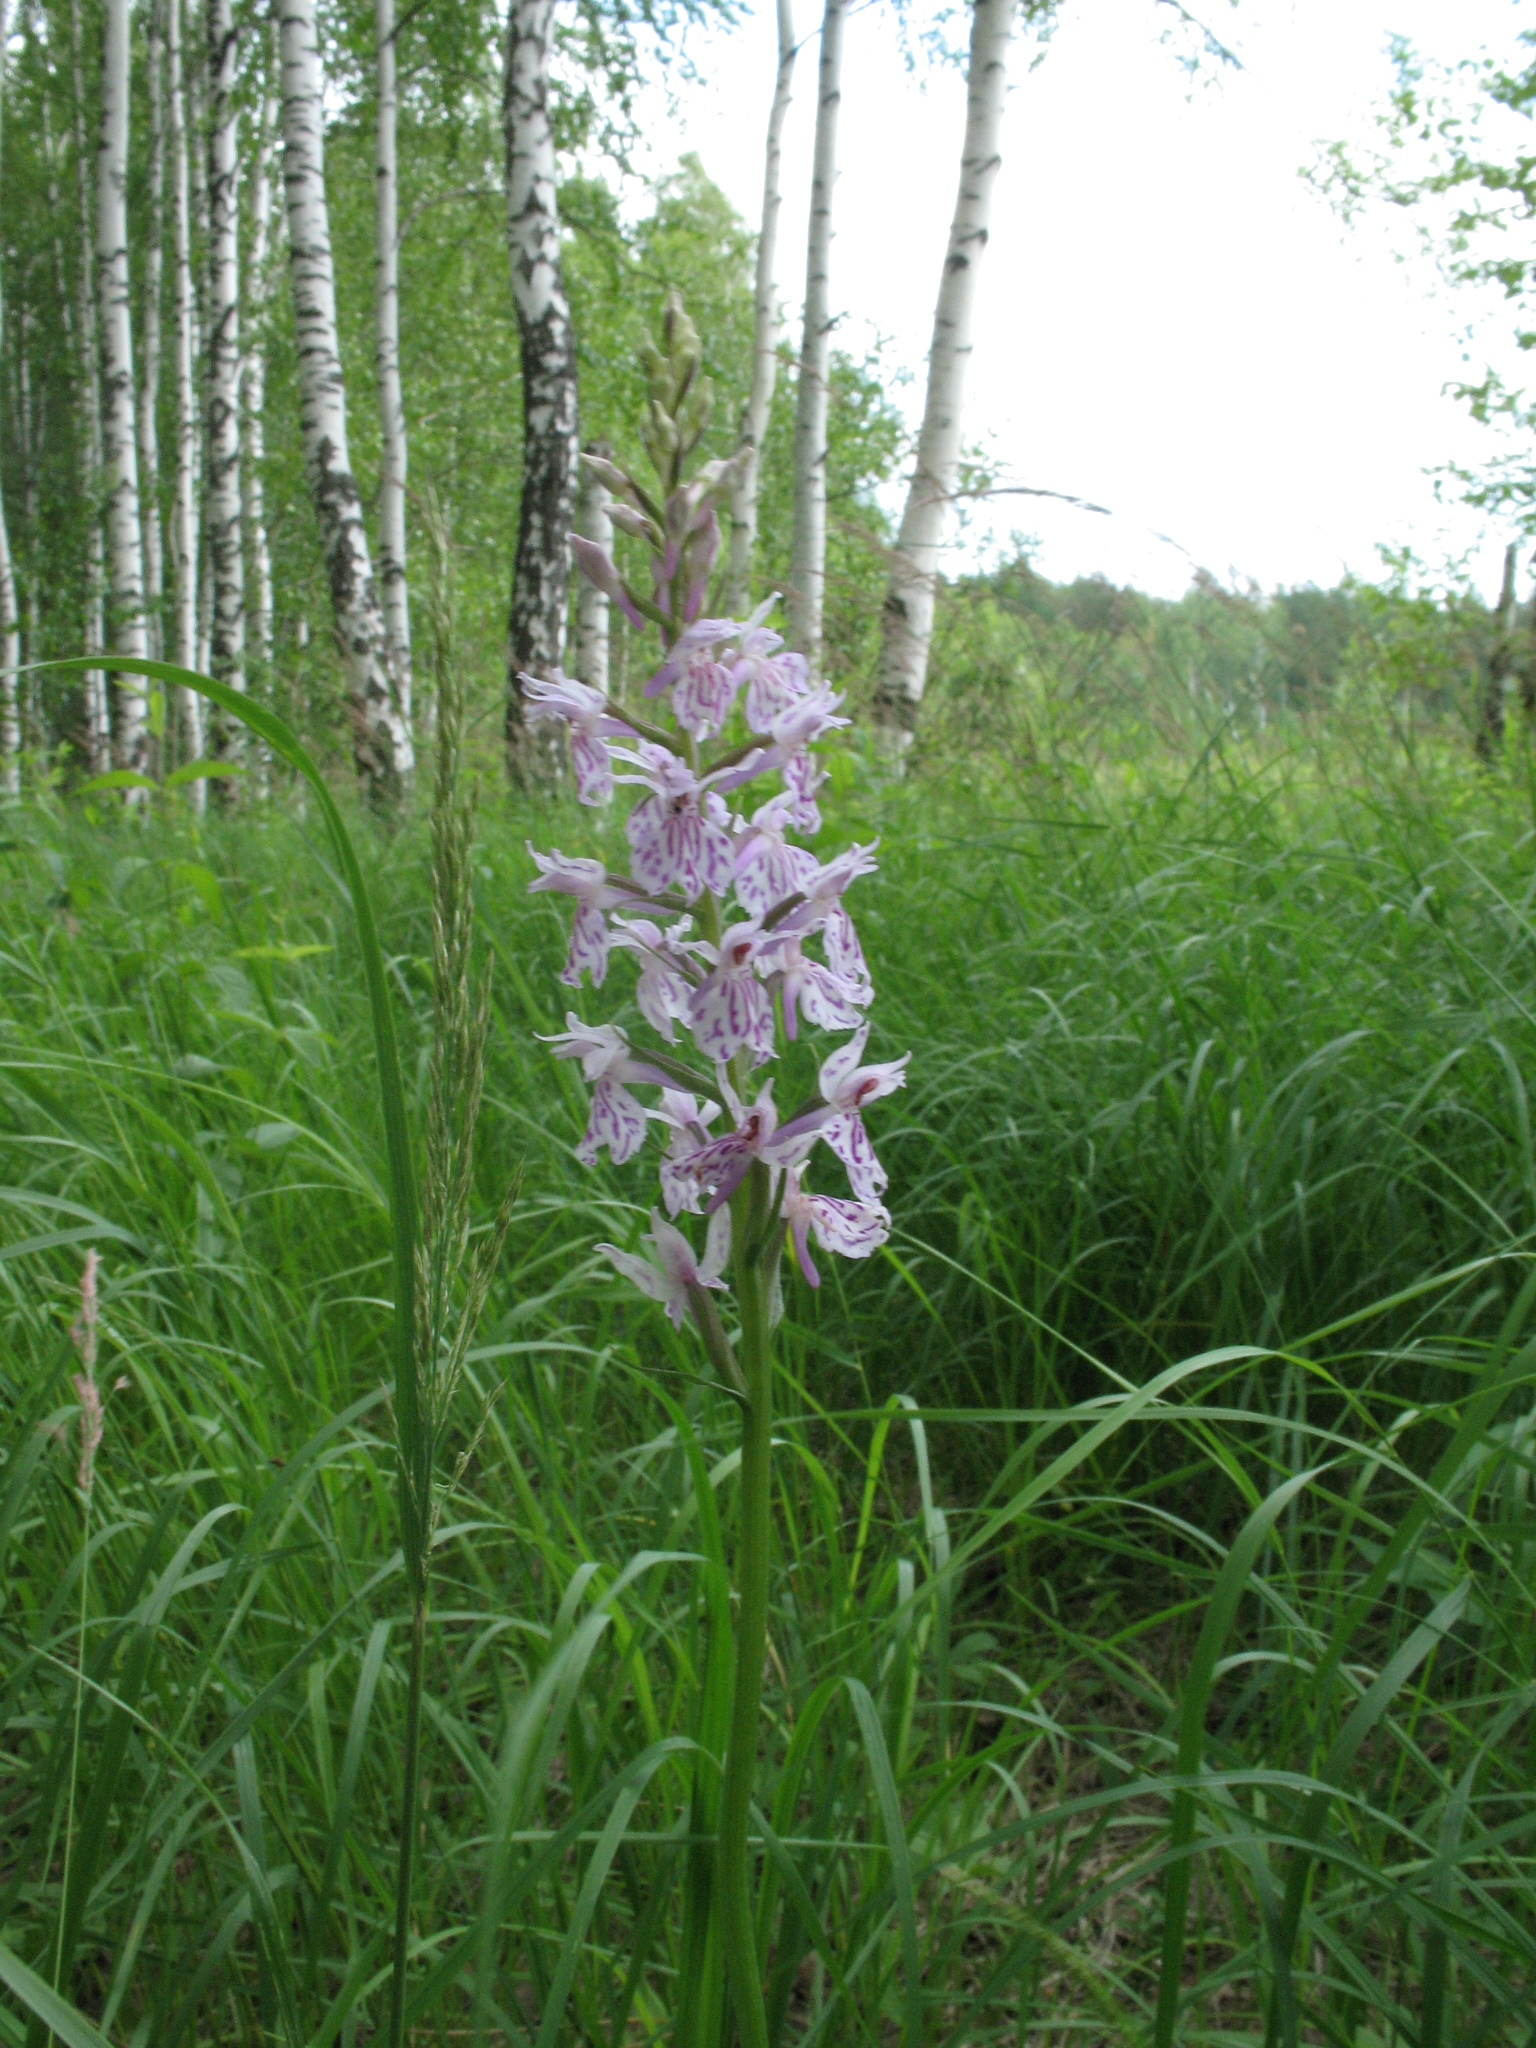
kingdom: Plantae
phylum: Tracheophyta
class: Liliopsida
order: Asparagales
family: Orchidaceae
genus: Dactylorhiza
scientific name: Dactylorhiza maculata
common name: Heath spotted-orchid
